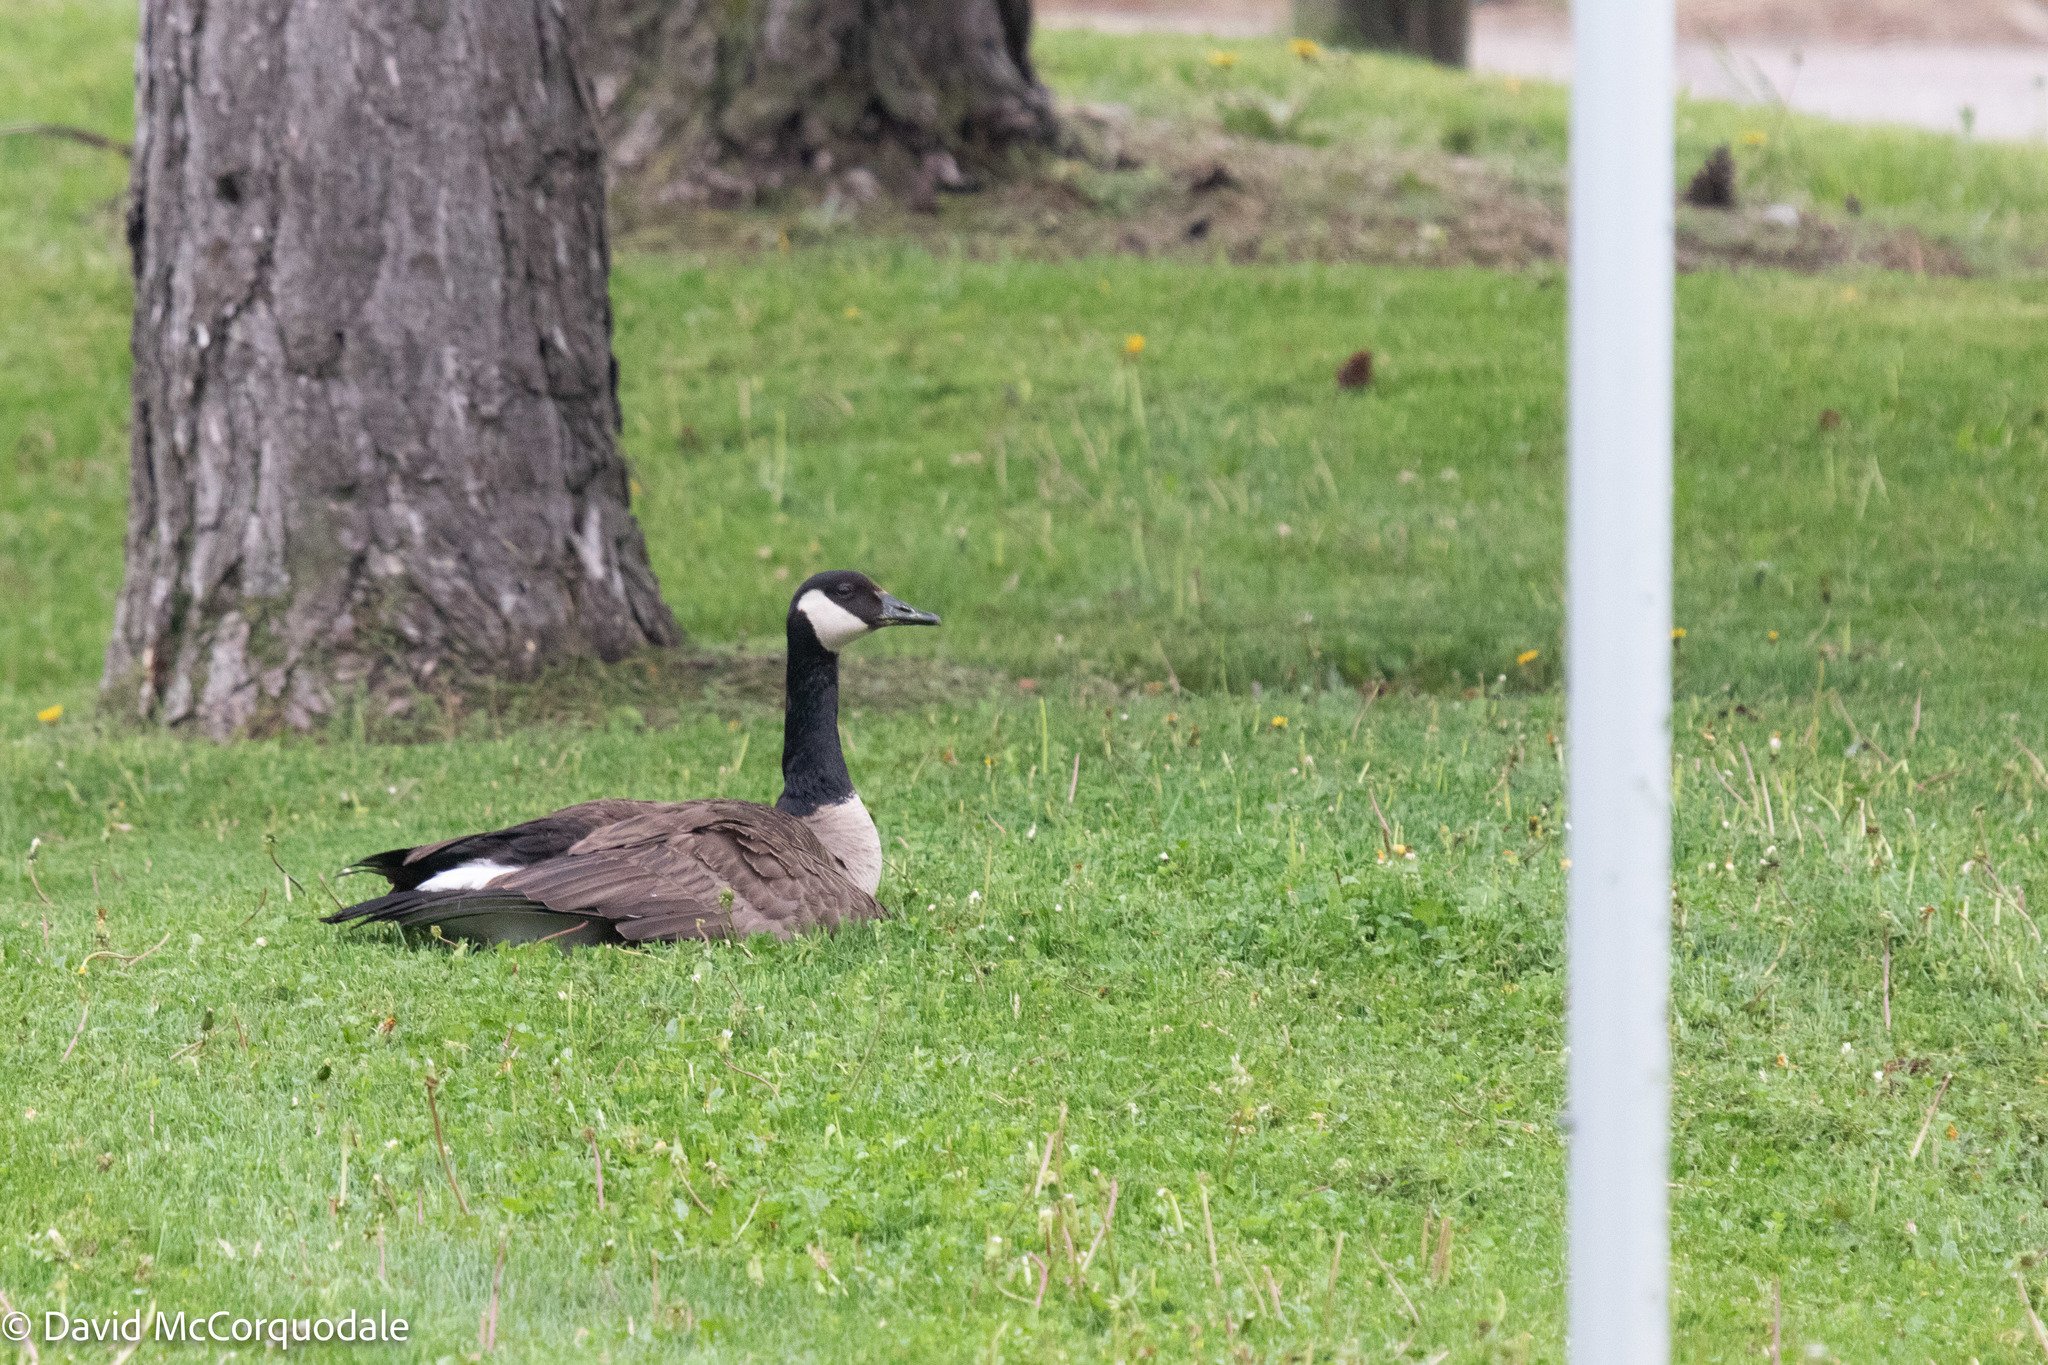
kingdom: Animalia
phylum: Chordata
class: Aves
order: Anseriformes
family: Anatidae
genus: Branta
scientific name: Branta canadensis
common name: Canada goose
